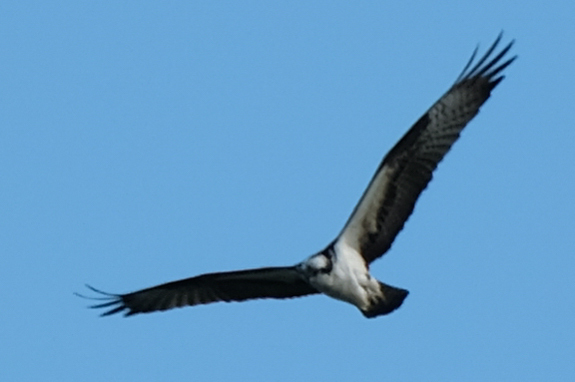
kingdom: Animalia
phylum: Chordata
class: Aves
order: Accipitriformes
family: Pandionidae
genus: Pandion
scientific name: Pandion haliaetus
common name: Osprey
